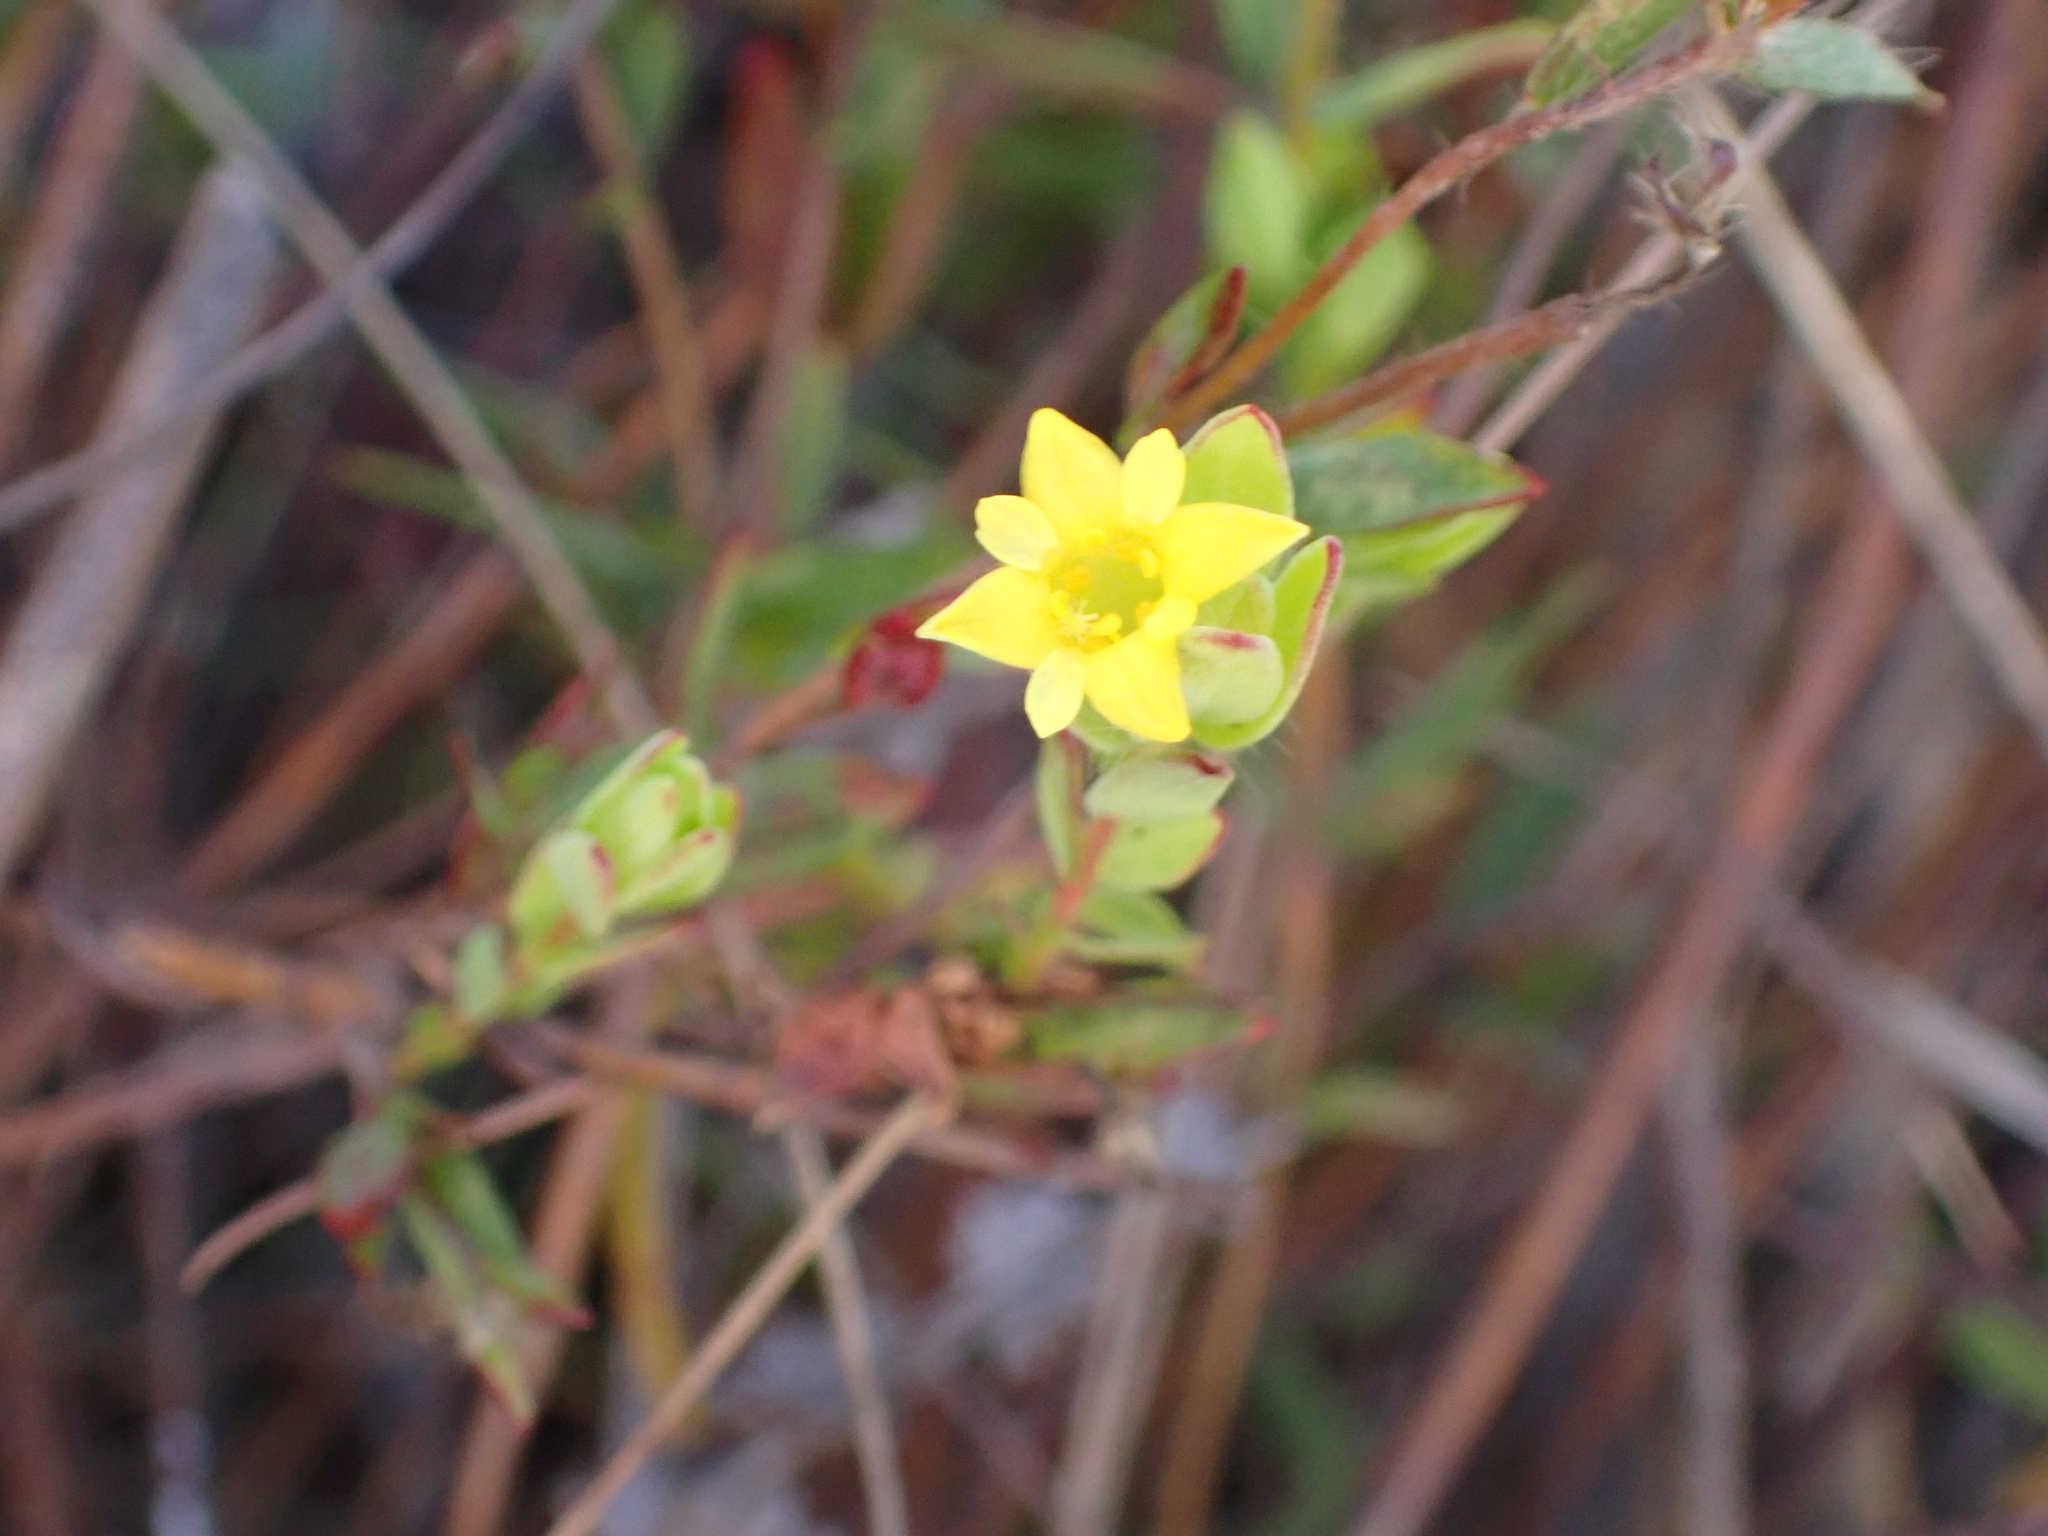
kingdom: Plantae
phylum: Tracheophyta
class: Magnoliopsida
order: Malvales
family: Thymelaeaceae
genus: Gnidia
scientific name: Gnidia juniperifolia
